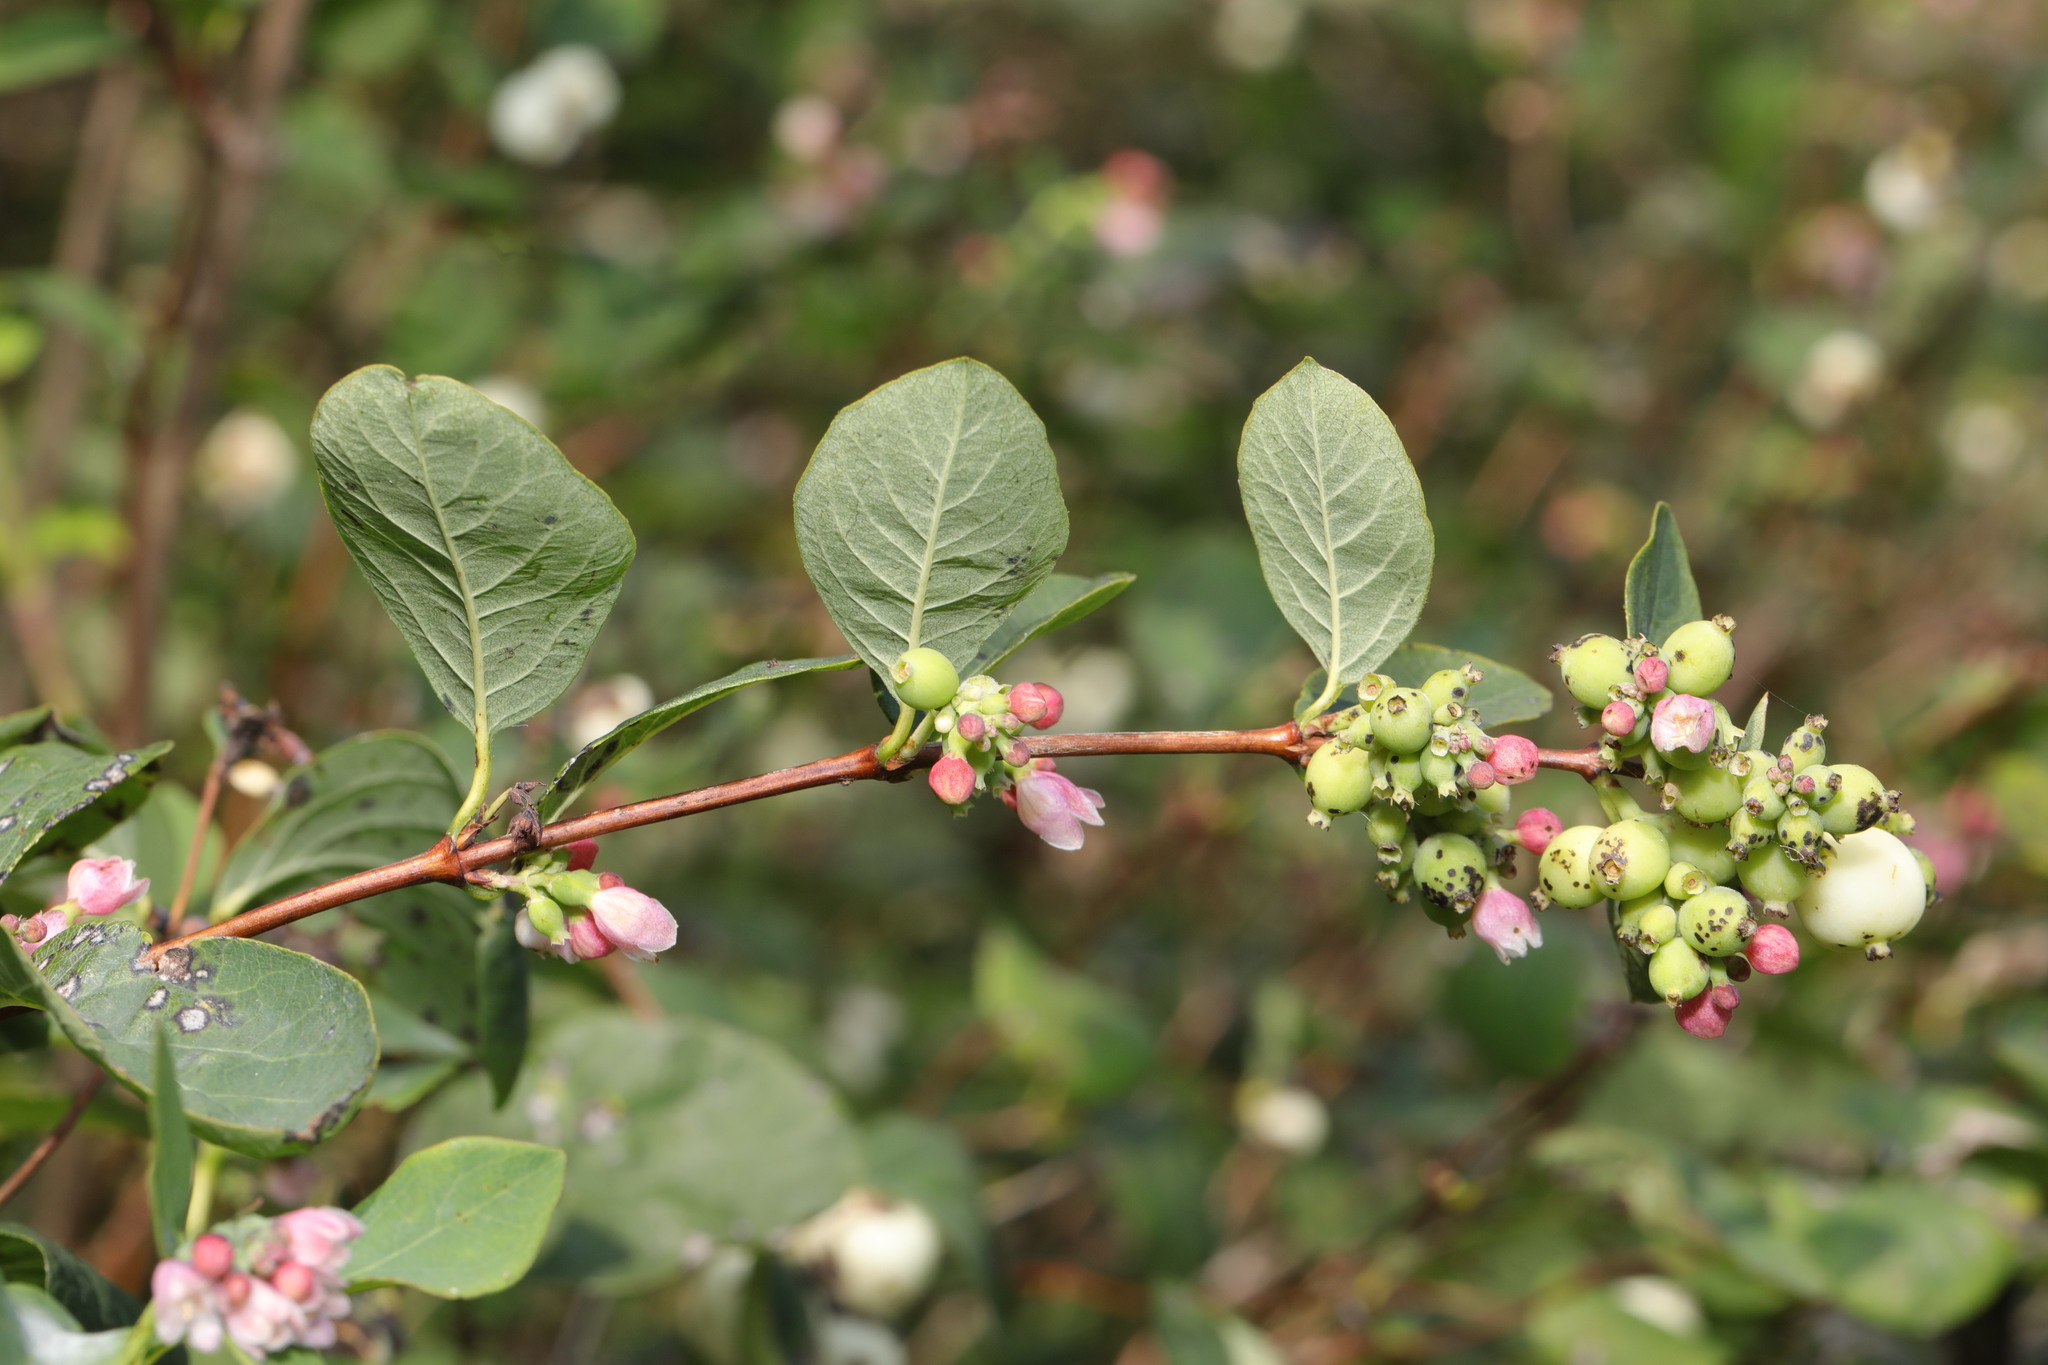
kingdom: Plantae
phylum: Tracheophyta
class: Magnoliopsida
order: Dipsacales
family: Caprifoliaceae
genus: Symphoricarpos
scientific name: Symphoricarpos albus
